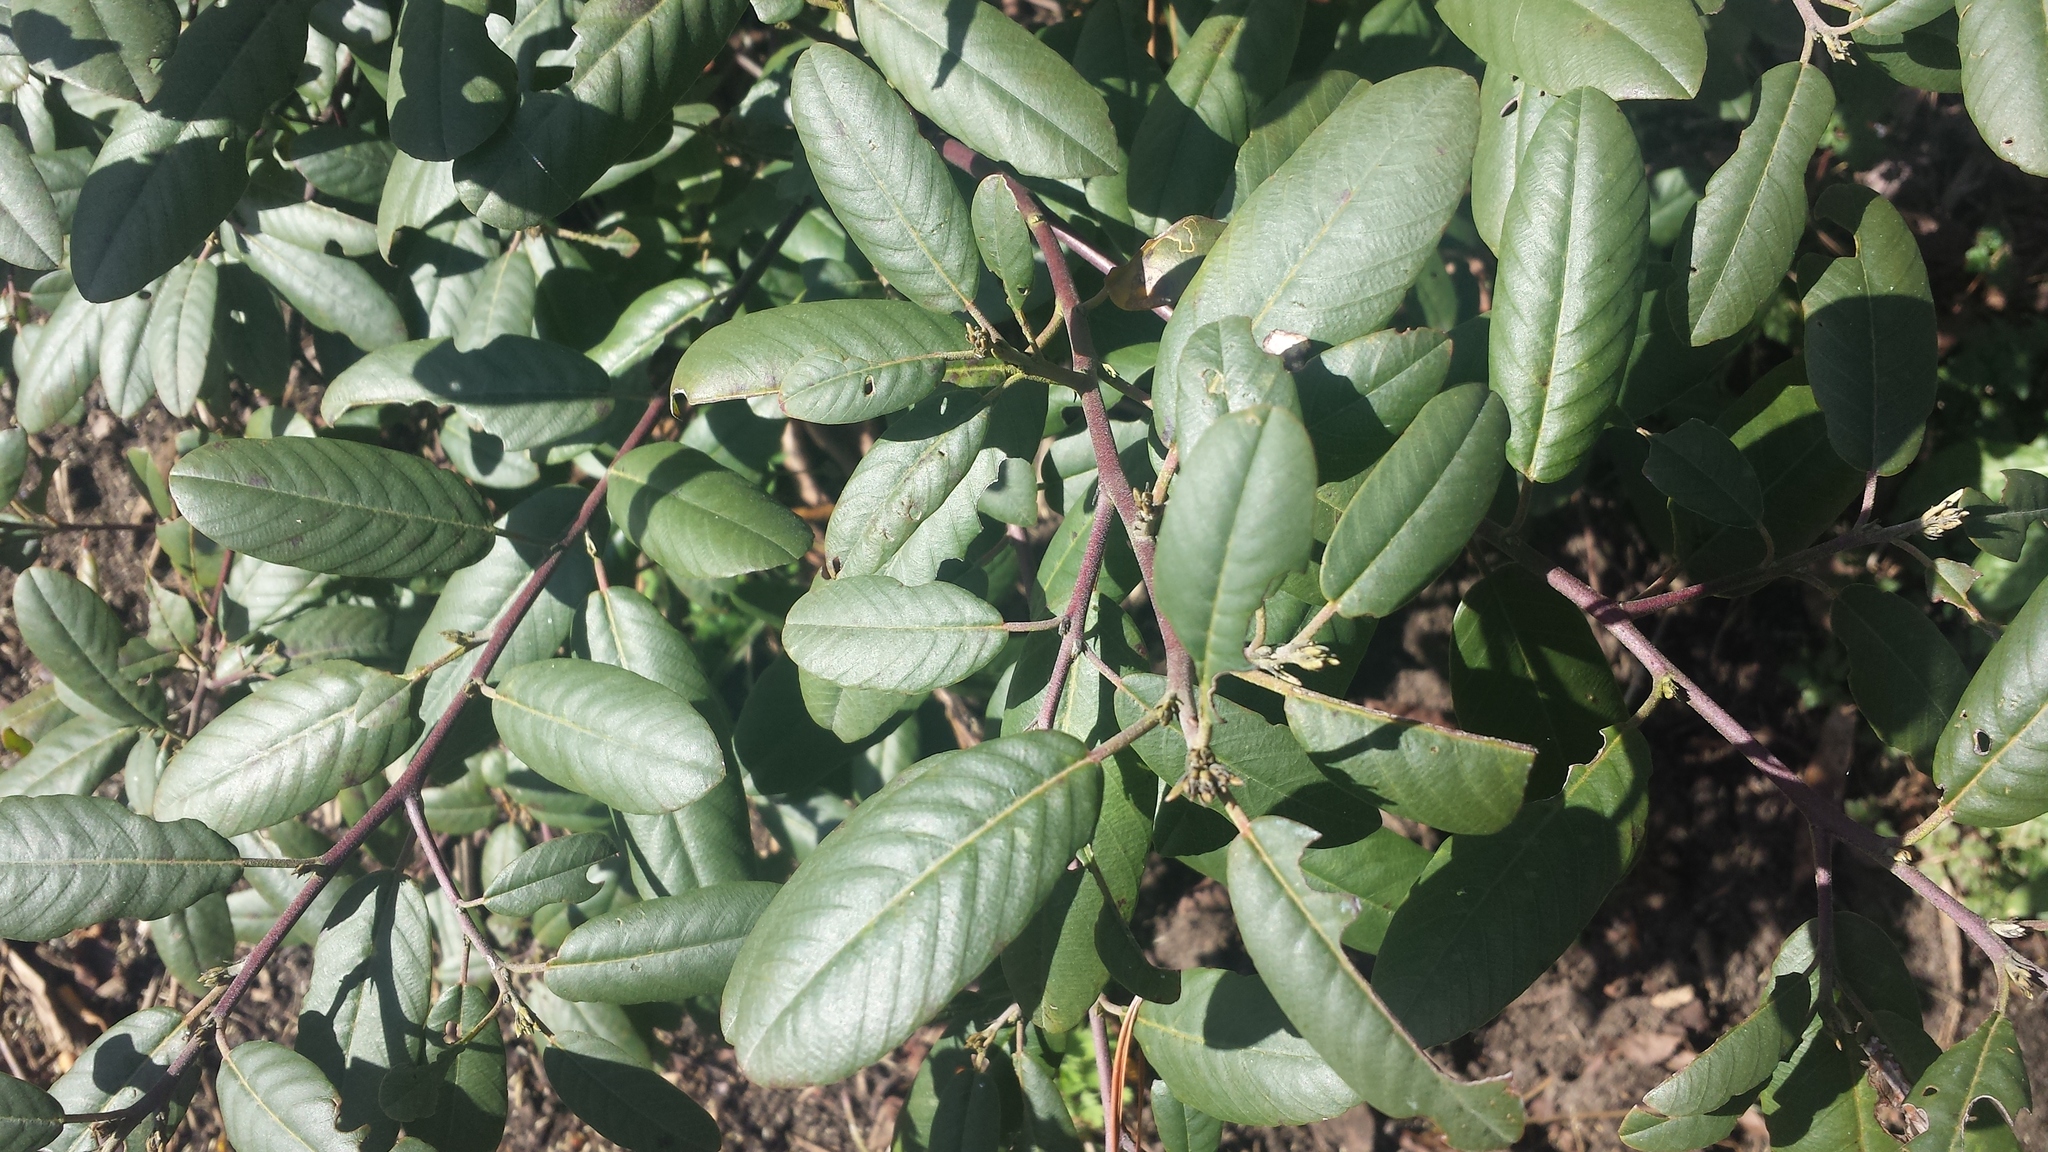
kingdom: Plantae
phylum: Tracheophyta
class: Magnoliopsida
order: Rosales
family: Rhamnaceae
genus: Frangula
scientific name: Frangula californica
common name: California buckthorn
